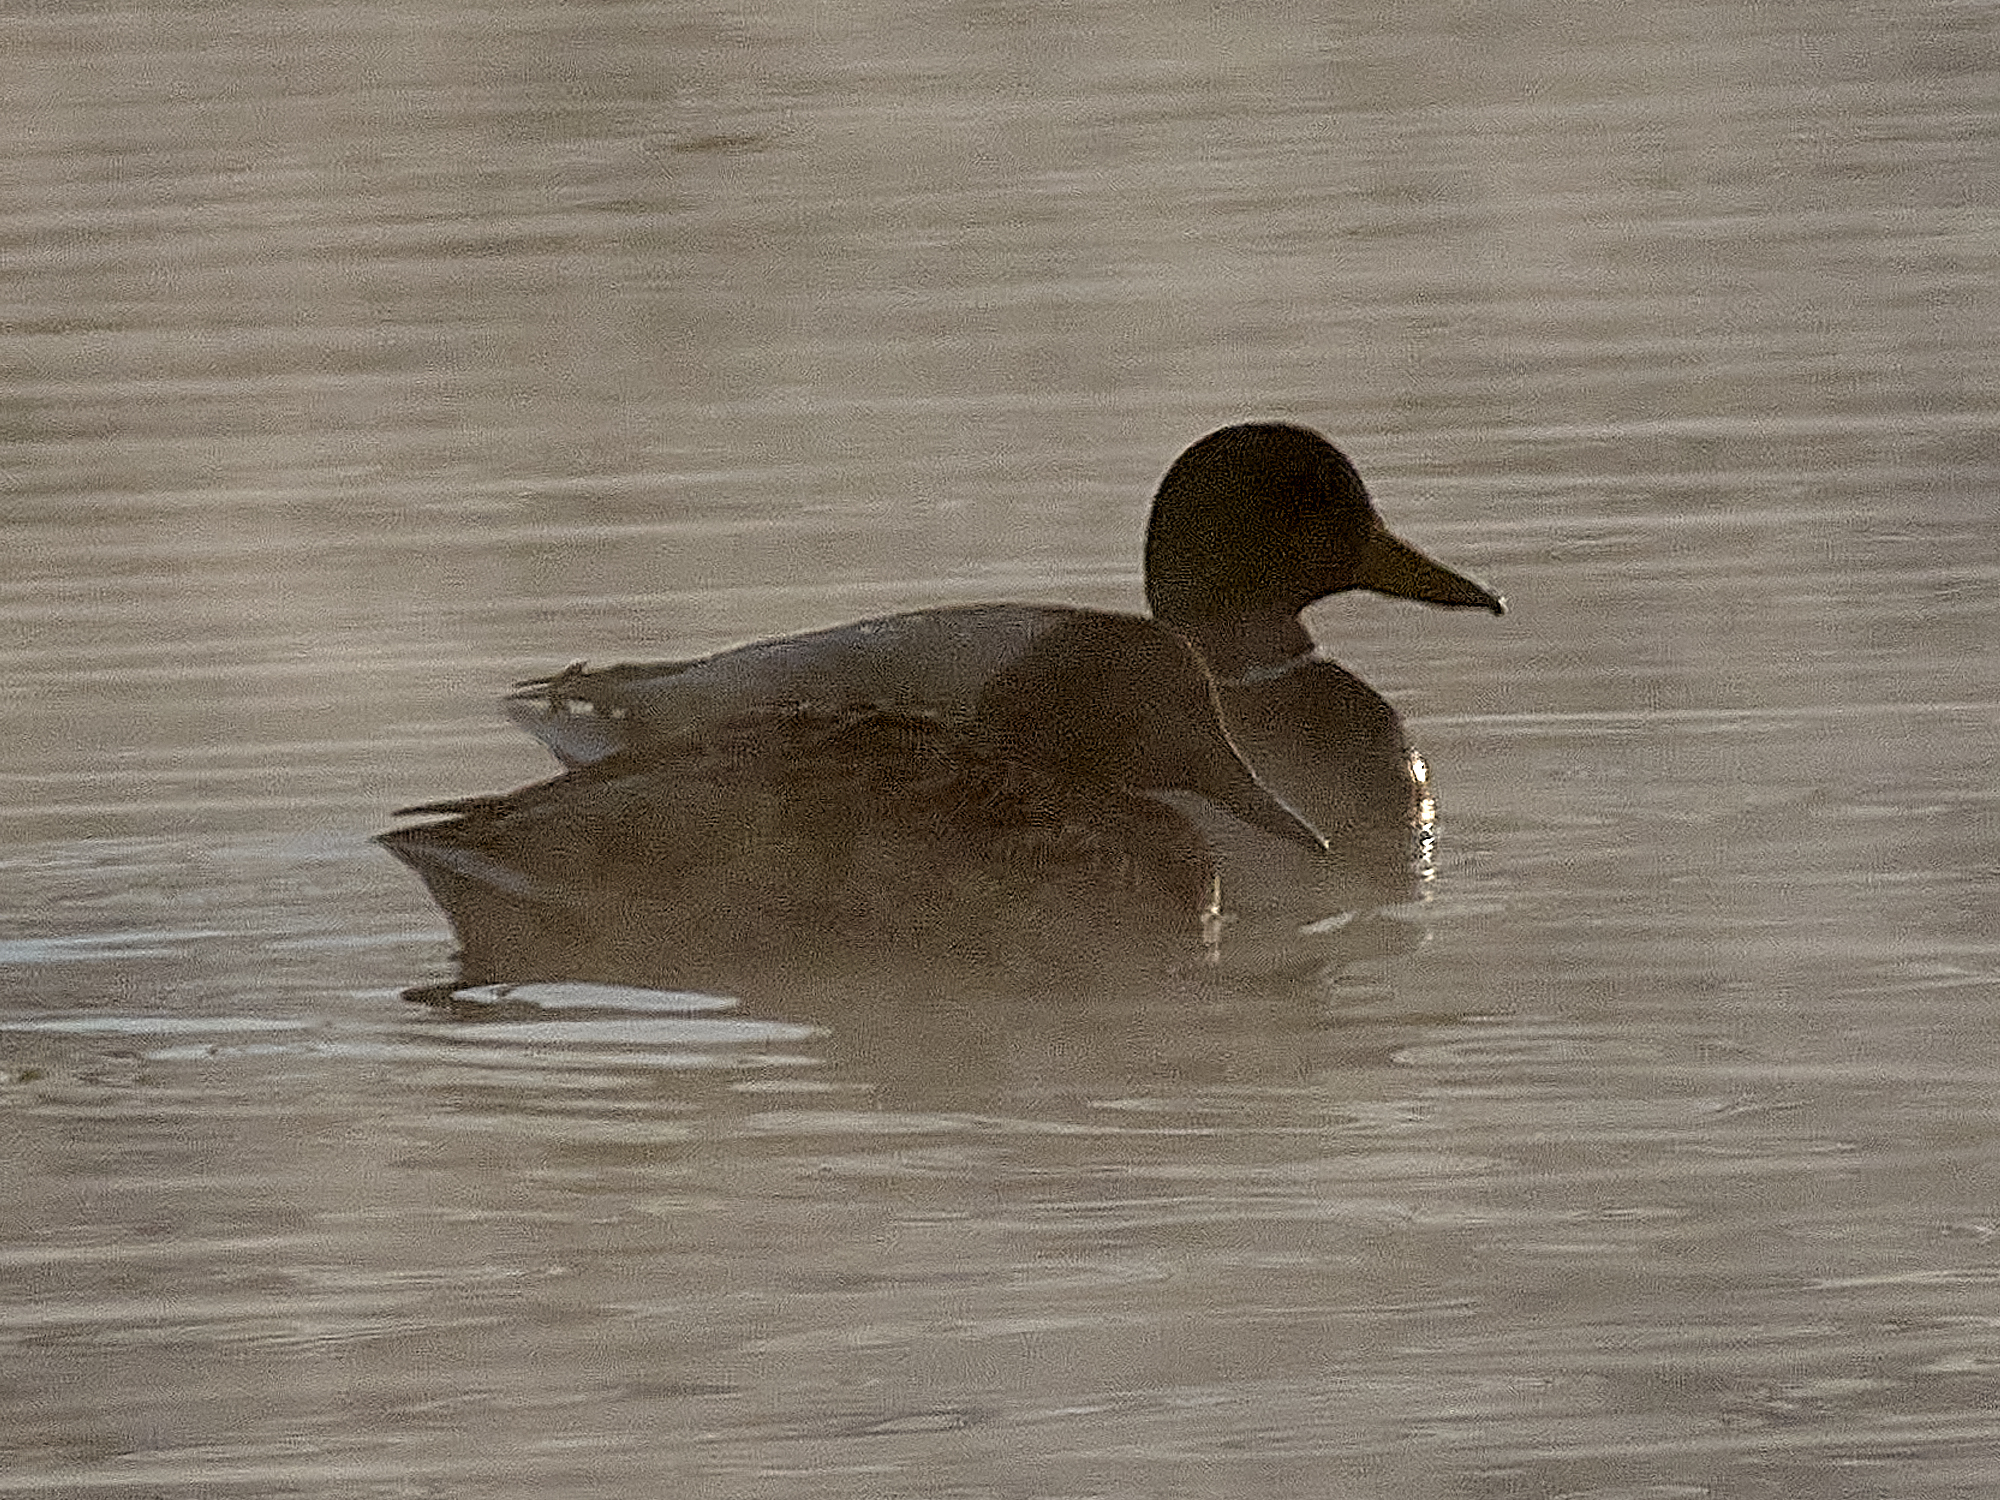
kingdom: Animalia
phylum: Chordata
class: Aves
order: Anseriformes
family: Anatidae
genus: Anas
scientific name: Anas platyrhynchos
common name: Mallard
